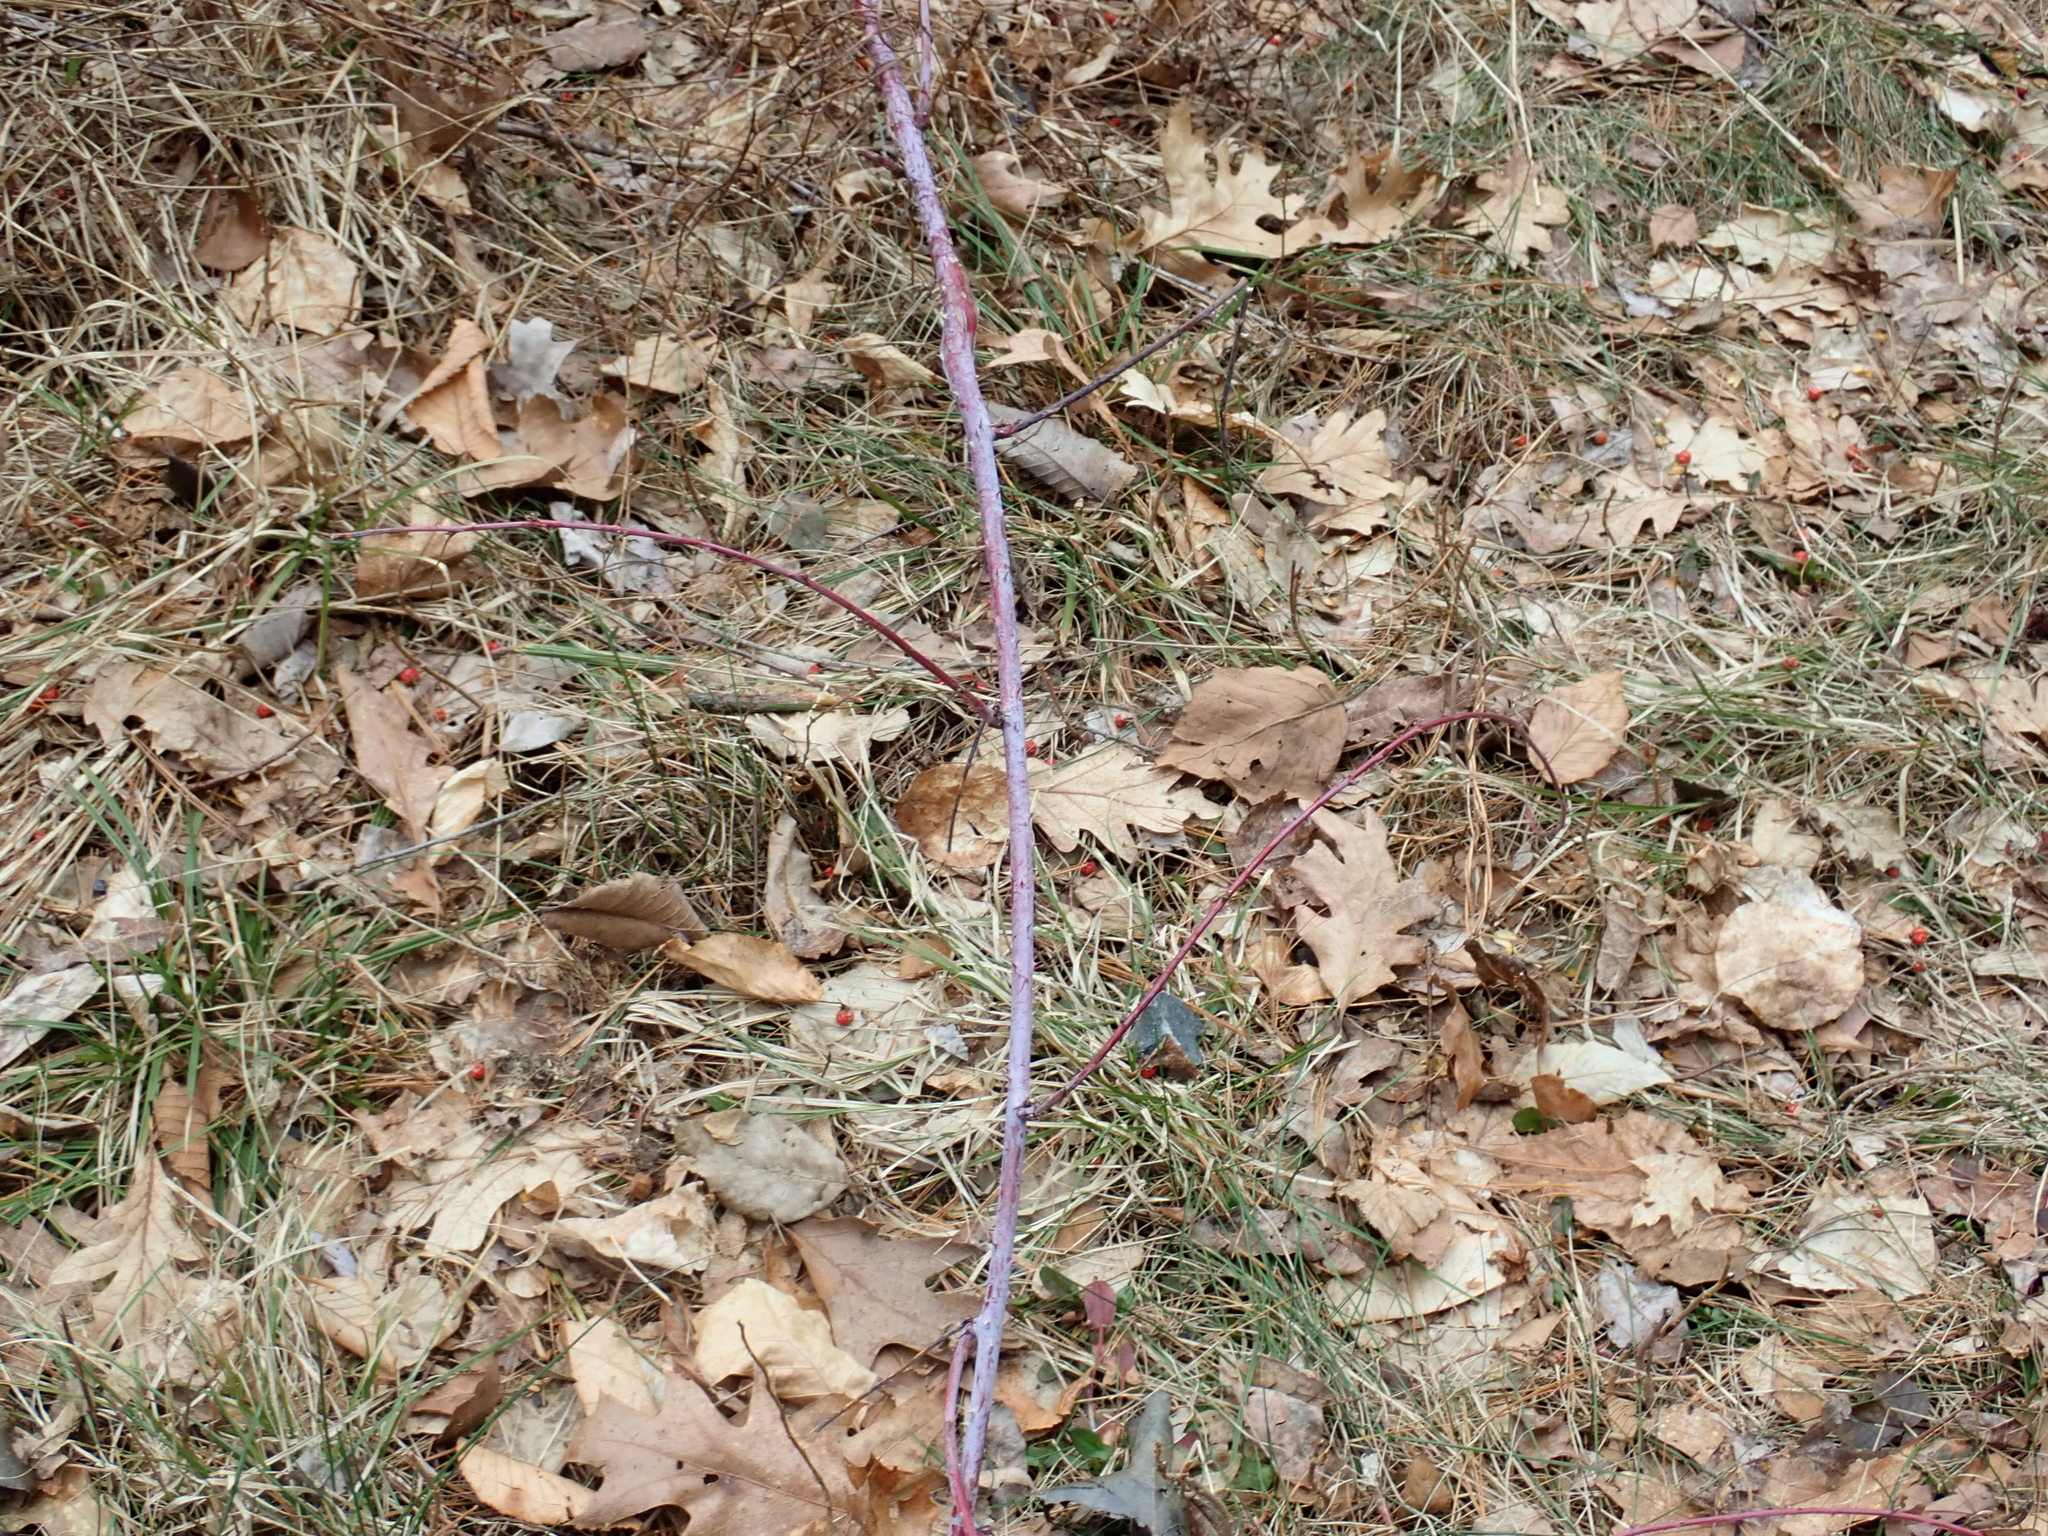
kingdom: Plantae
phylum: Tracheophyta
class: Magnoliopsida
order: Rosales
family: Rosaceae
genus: Rubus
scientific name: Rubus occidentalis
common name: Black raspberry
